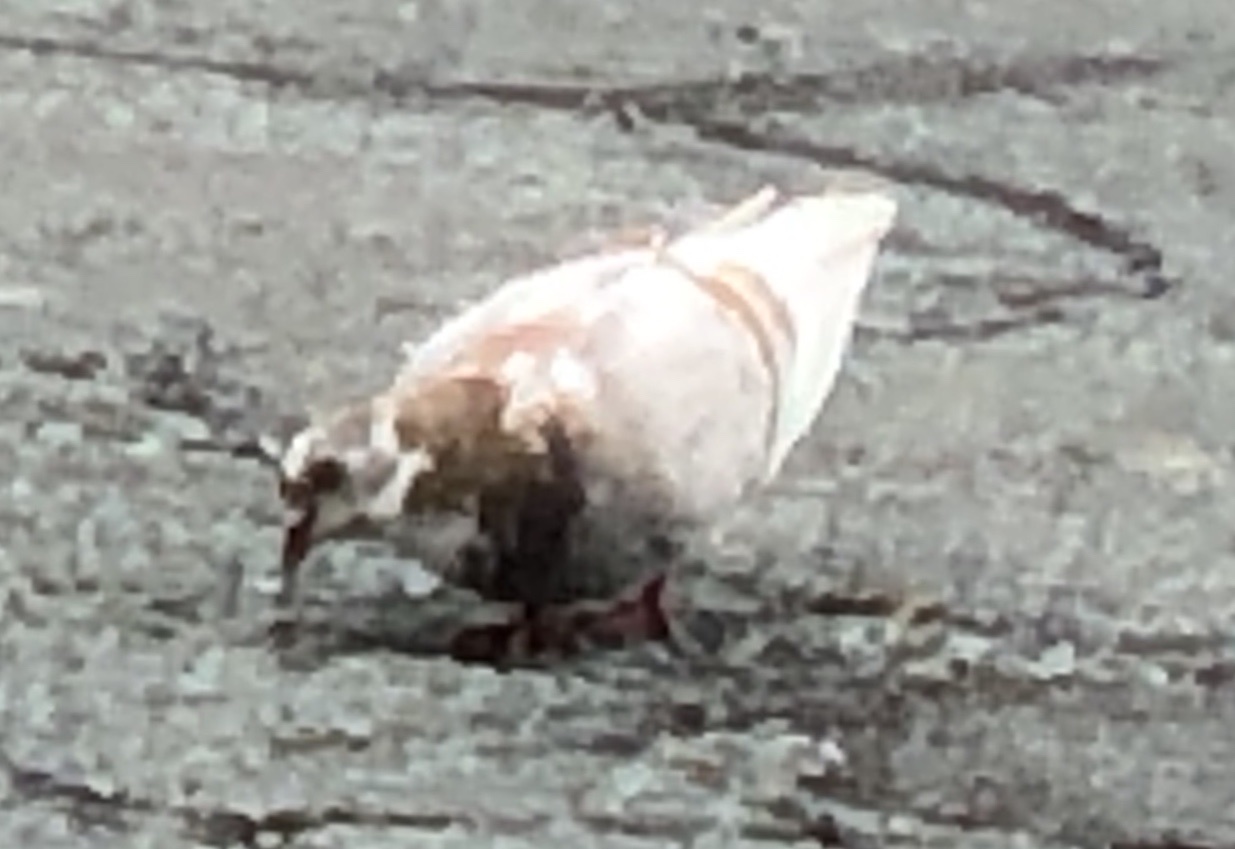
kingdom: Animalia
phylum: Chordata
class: Aves
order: Columbiformes
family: Columbidae
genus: Columba
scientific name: Columba livia
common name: Rock pigeon
